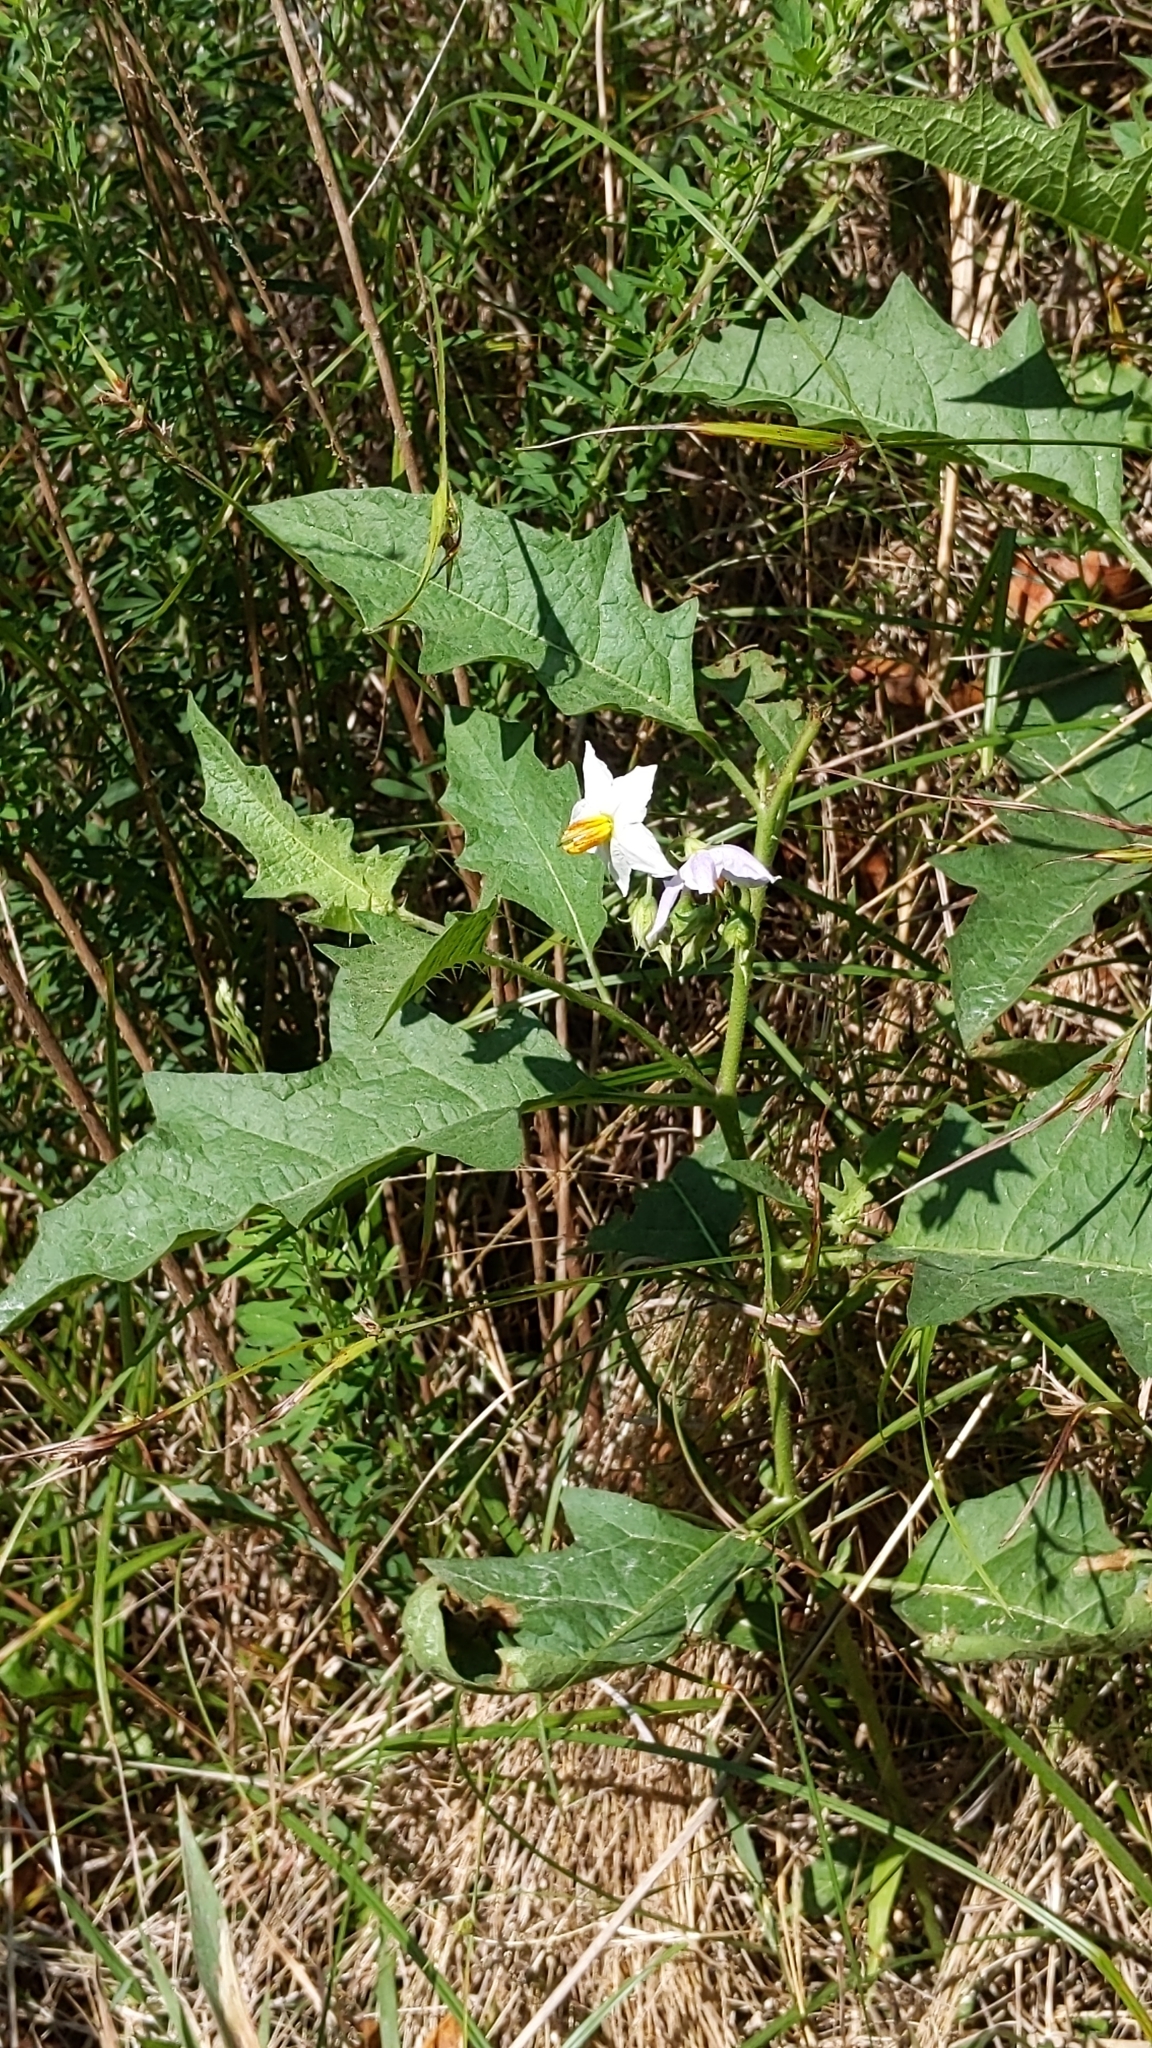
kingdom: Plantae
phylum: Tracheophyta
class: Magnoliopsida
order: Solanales
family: Solanaceae
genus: Solanum
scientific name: Solanum carolinense
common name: Horse-nettle
